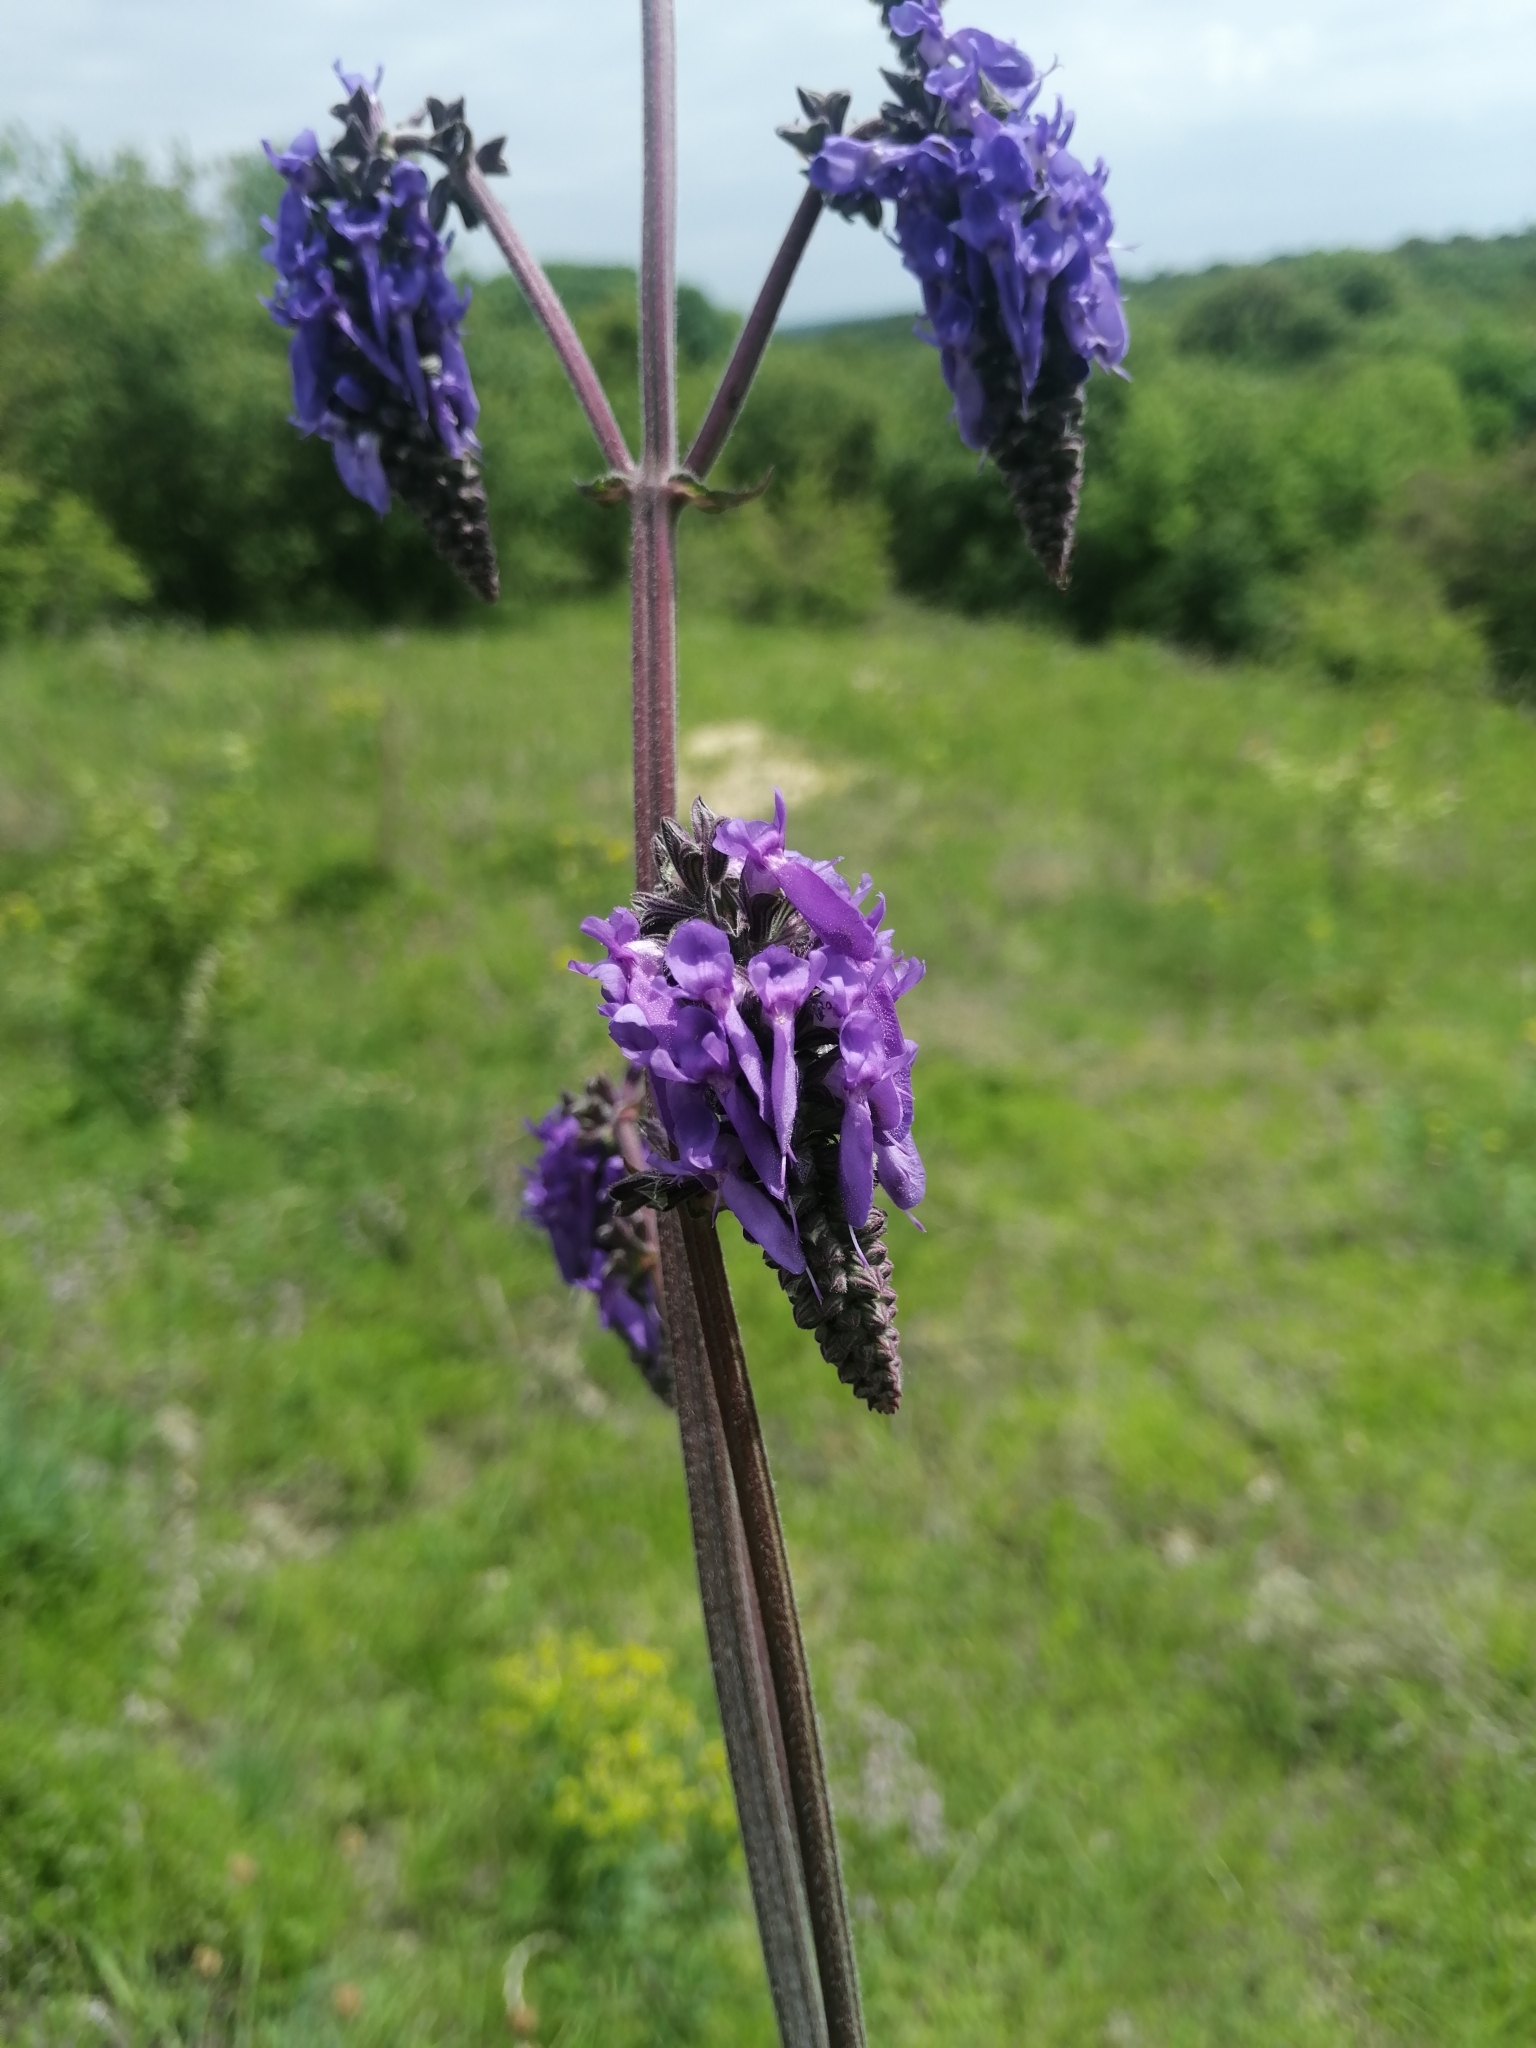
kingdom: Plantae
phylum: Tracheophyta
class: Magnoliopsida
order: Lamiales
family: Lamiaceae
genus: Salvia
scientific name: Salvia nutans
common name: Nodding sage
